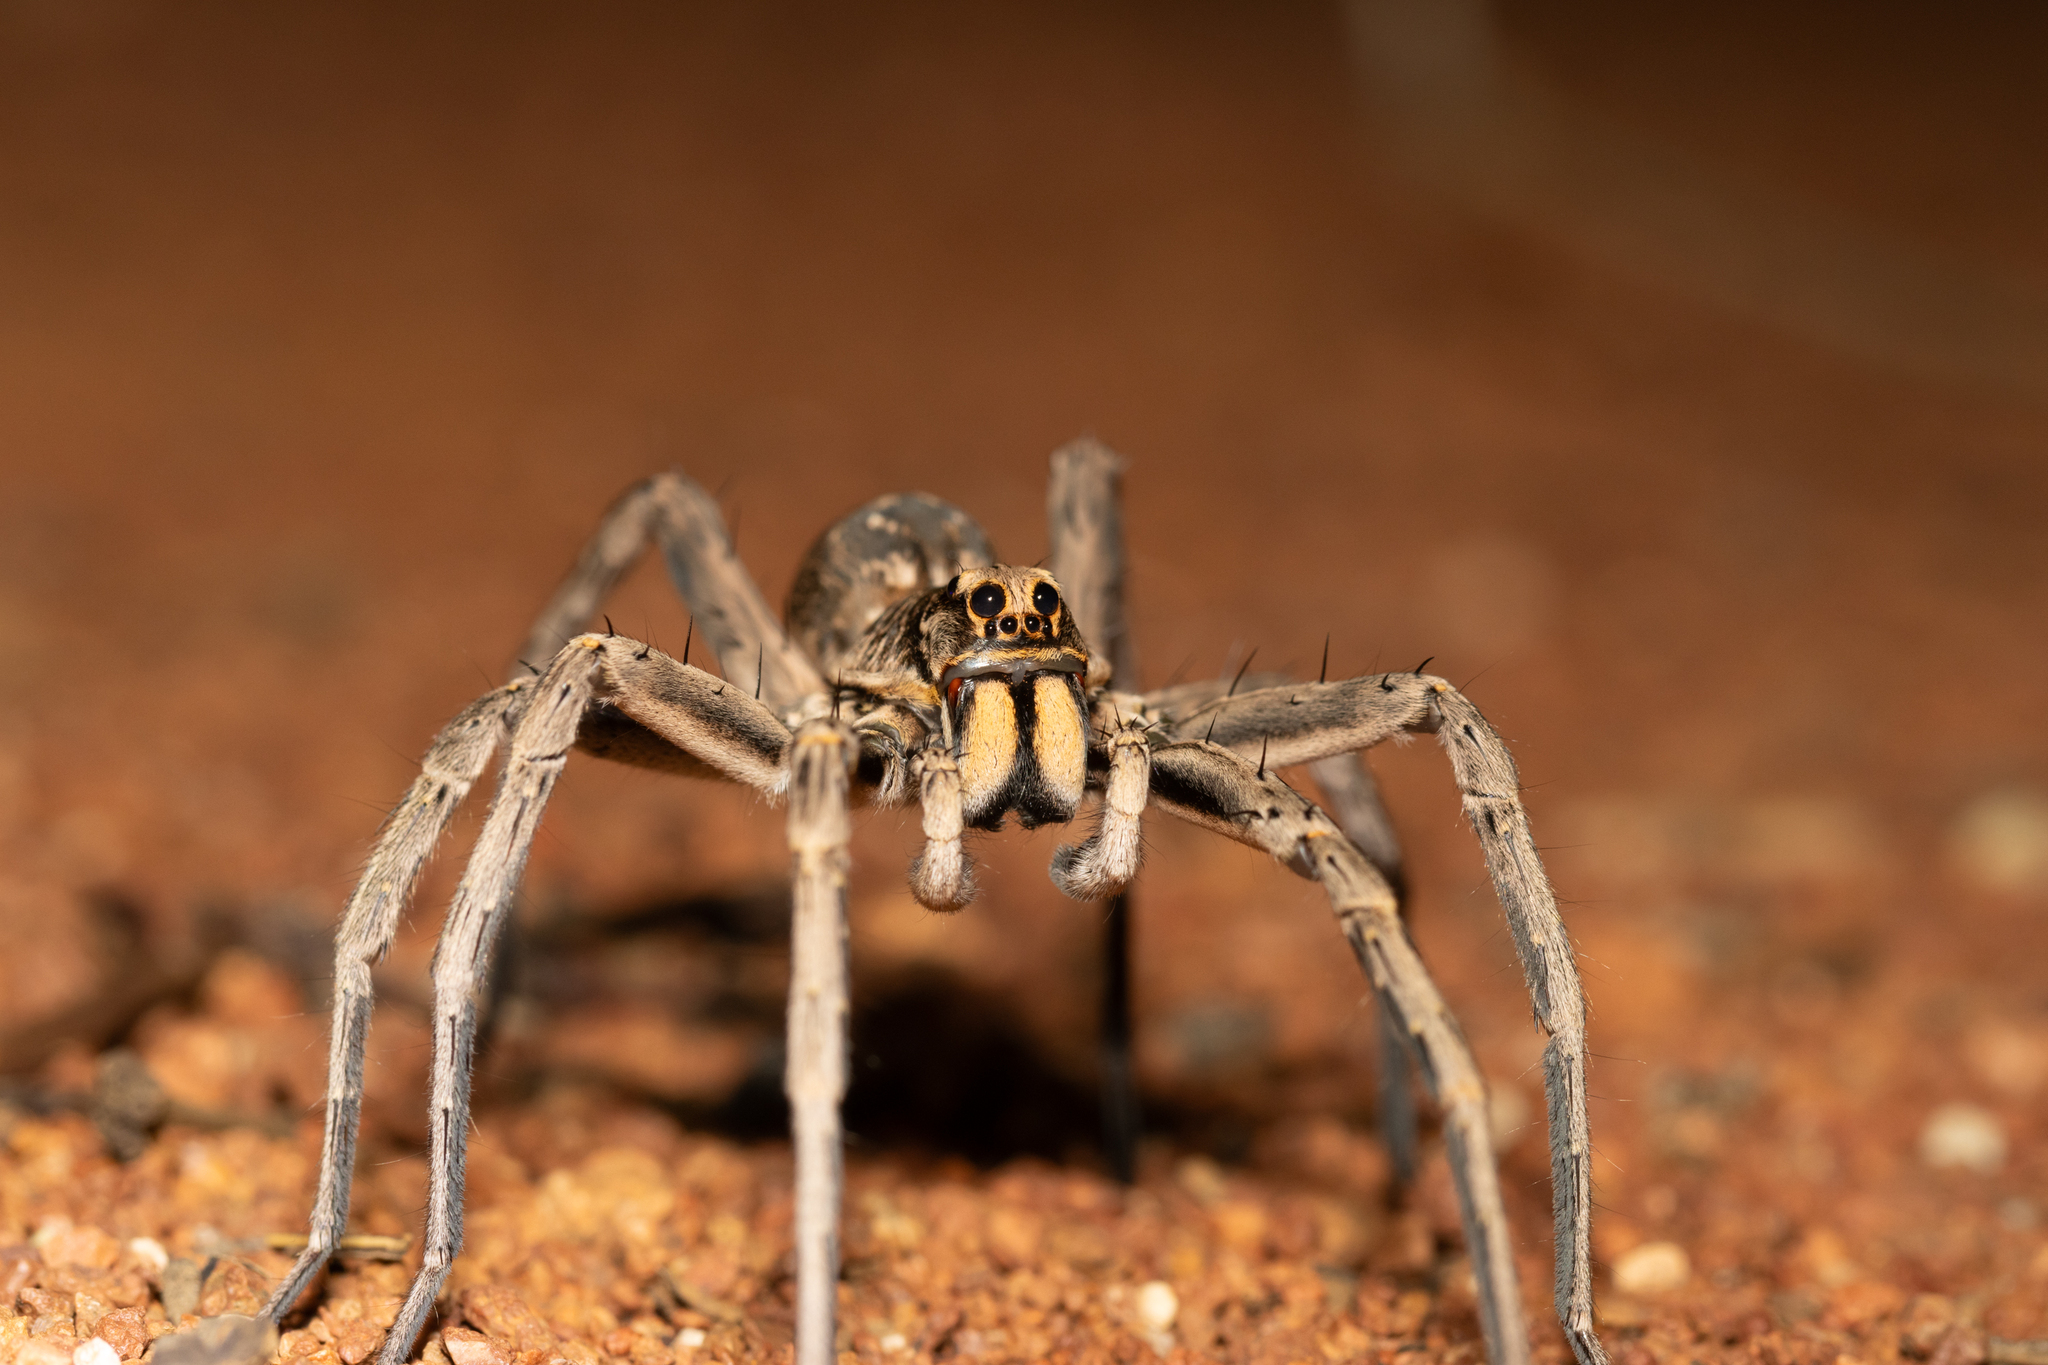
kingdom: Animalia
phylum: Arthropoda
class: Arachnida
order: Araneae
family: Lycosidae
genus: Hoggicosa
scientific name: Hoggicosa castanea
